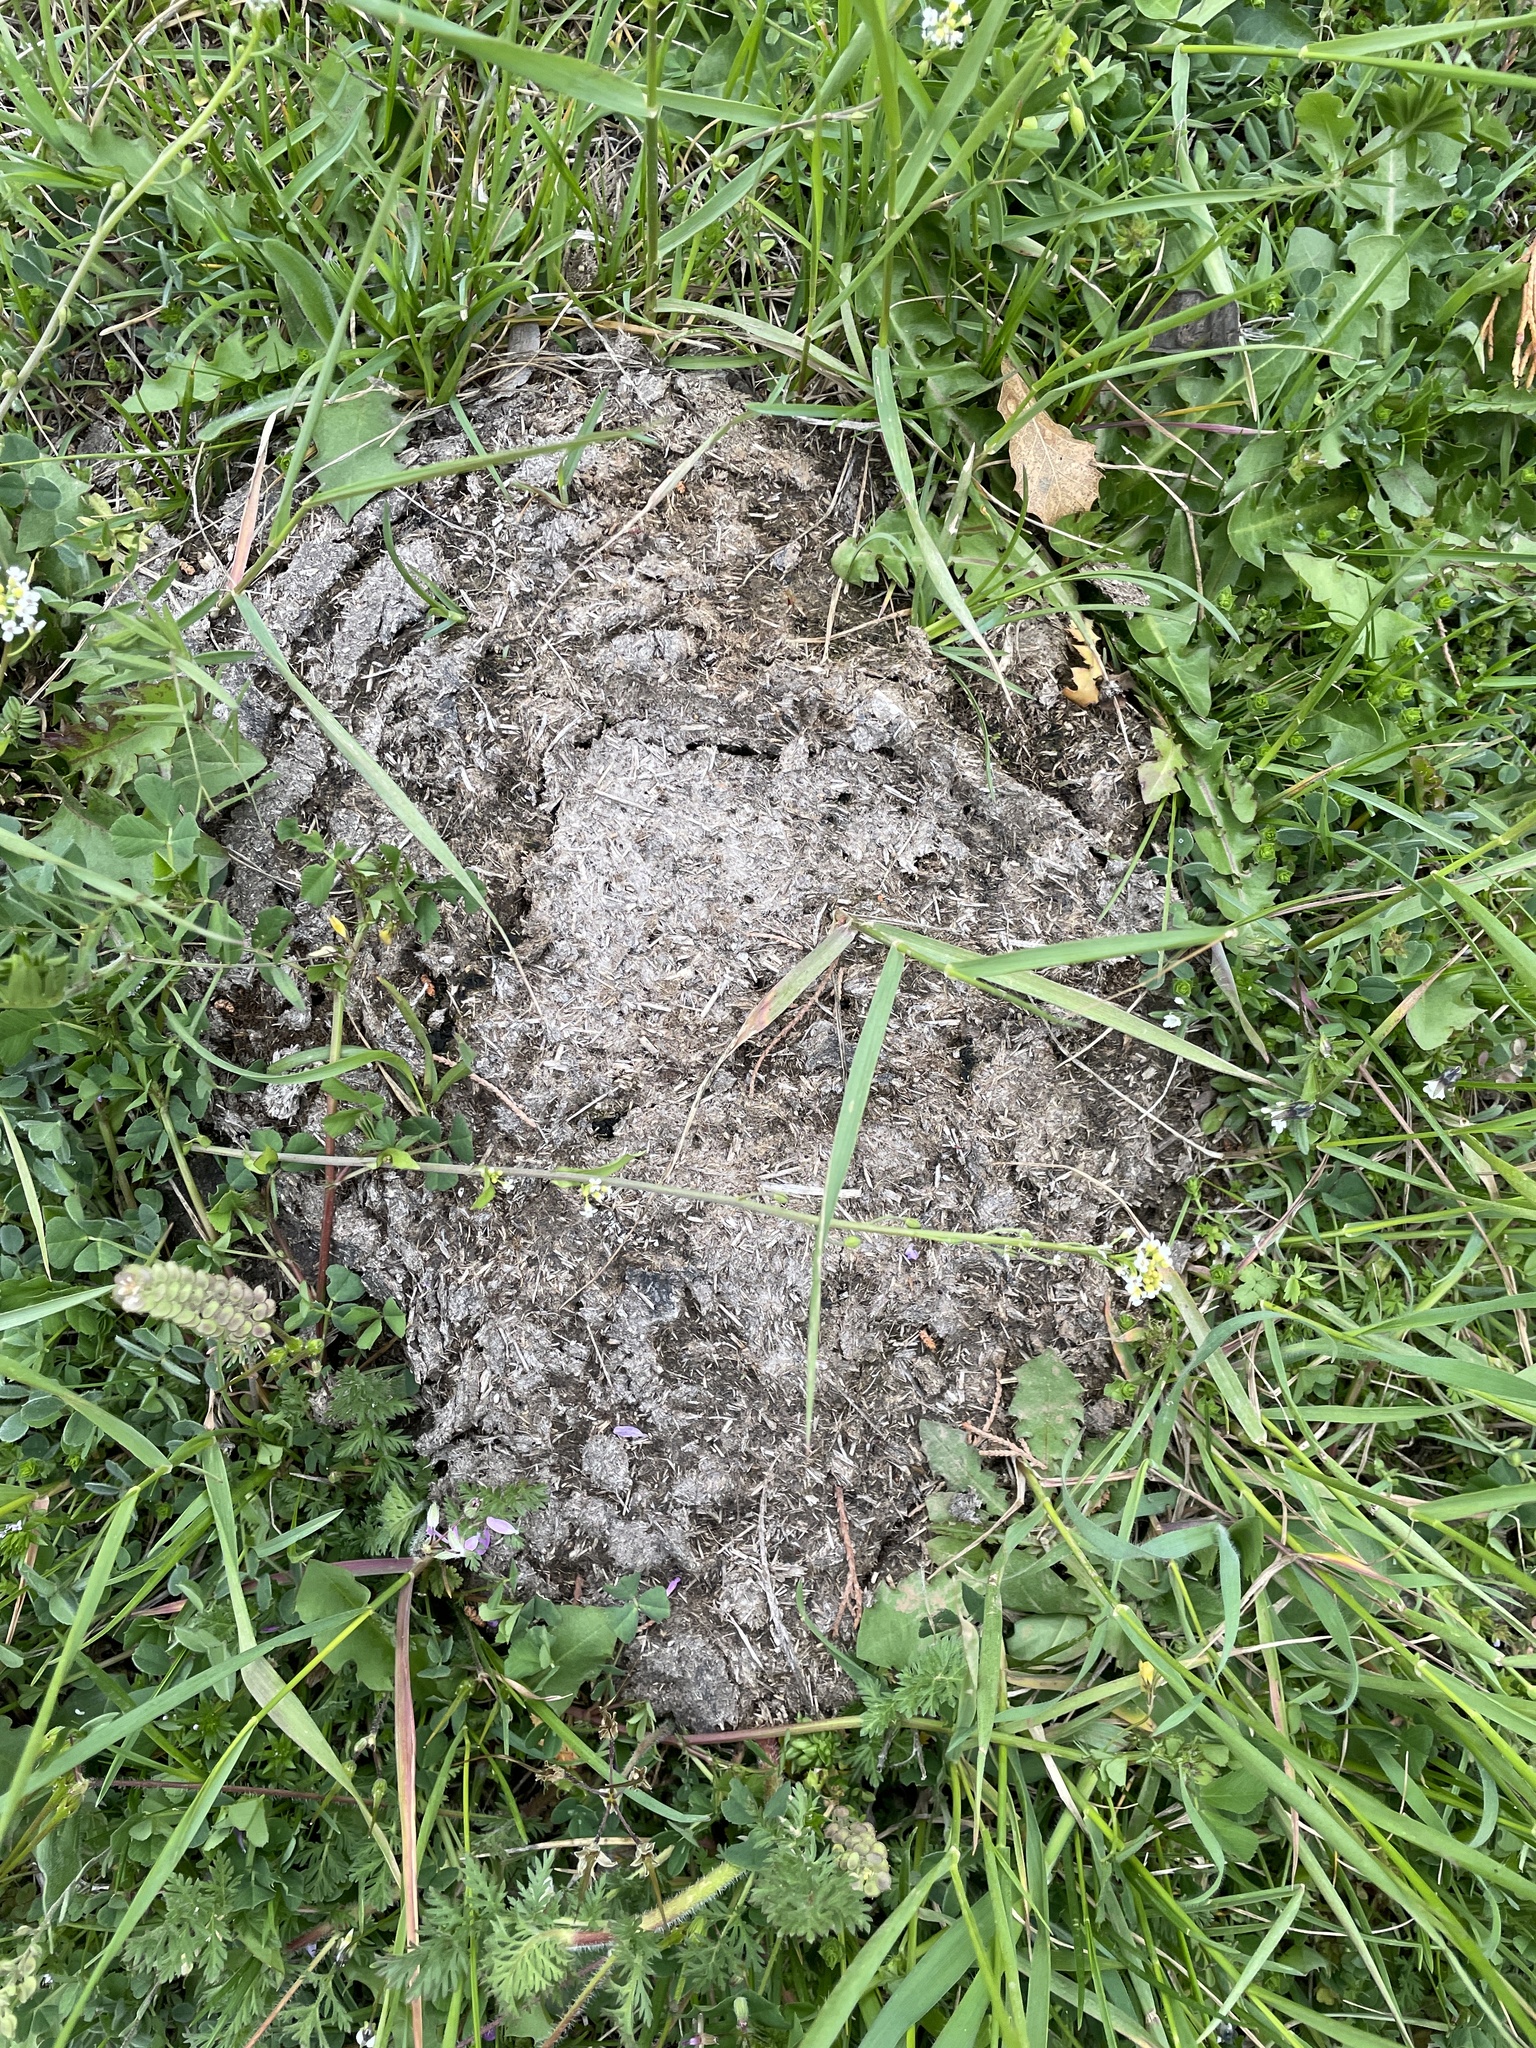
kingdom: Animalia
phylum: Chordata
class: Mammalia
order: Artiodactyla
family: Bovidae
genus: Bos
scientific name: Bos taurus
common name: Domesticated cattle
